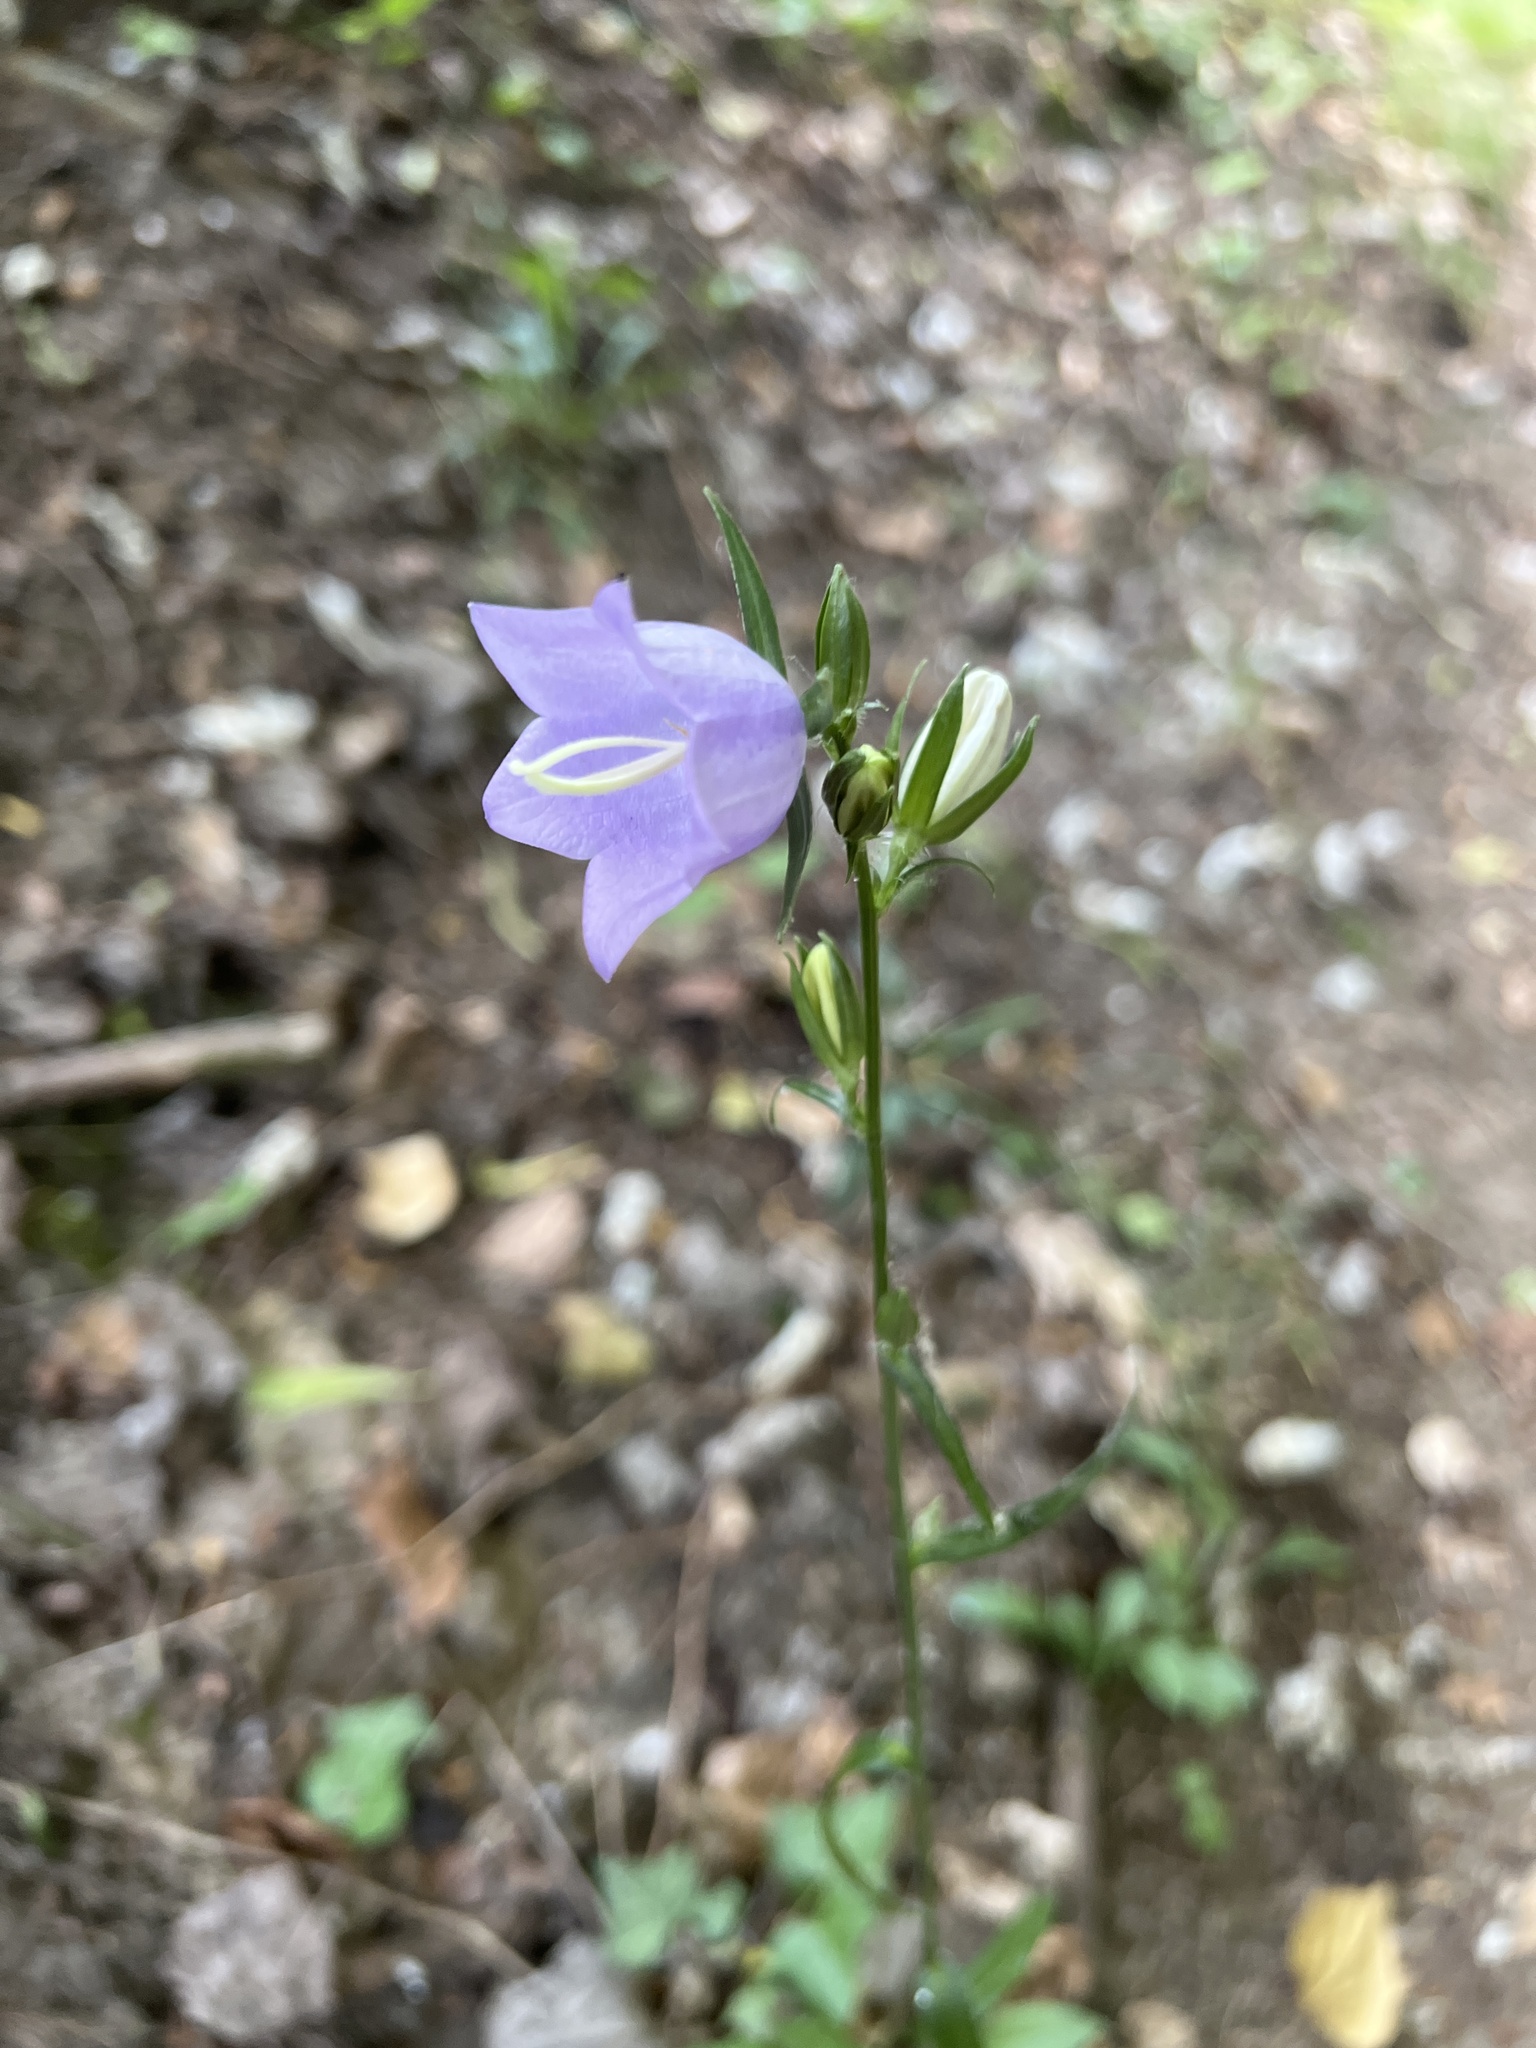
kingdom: Plantae
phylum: Tracheophyta
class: Magnoliopsida
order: Asterales
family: Campanulaceae
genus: Campanula
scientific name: Campanula persicifolia
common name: Peach-leaved bellflower
